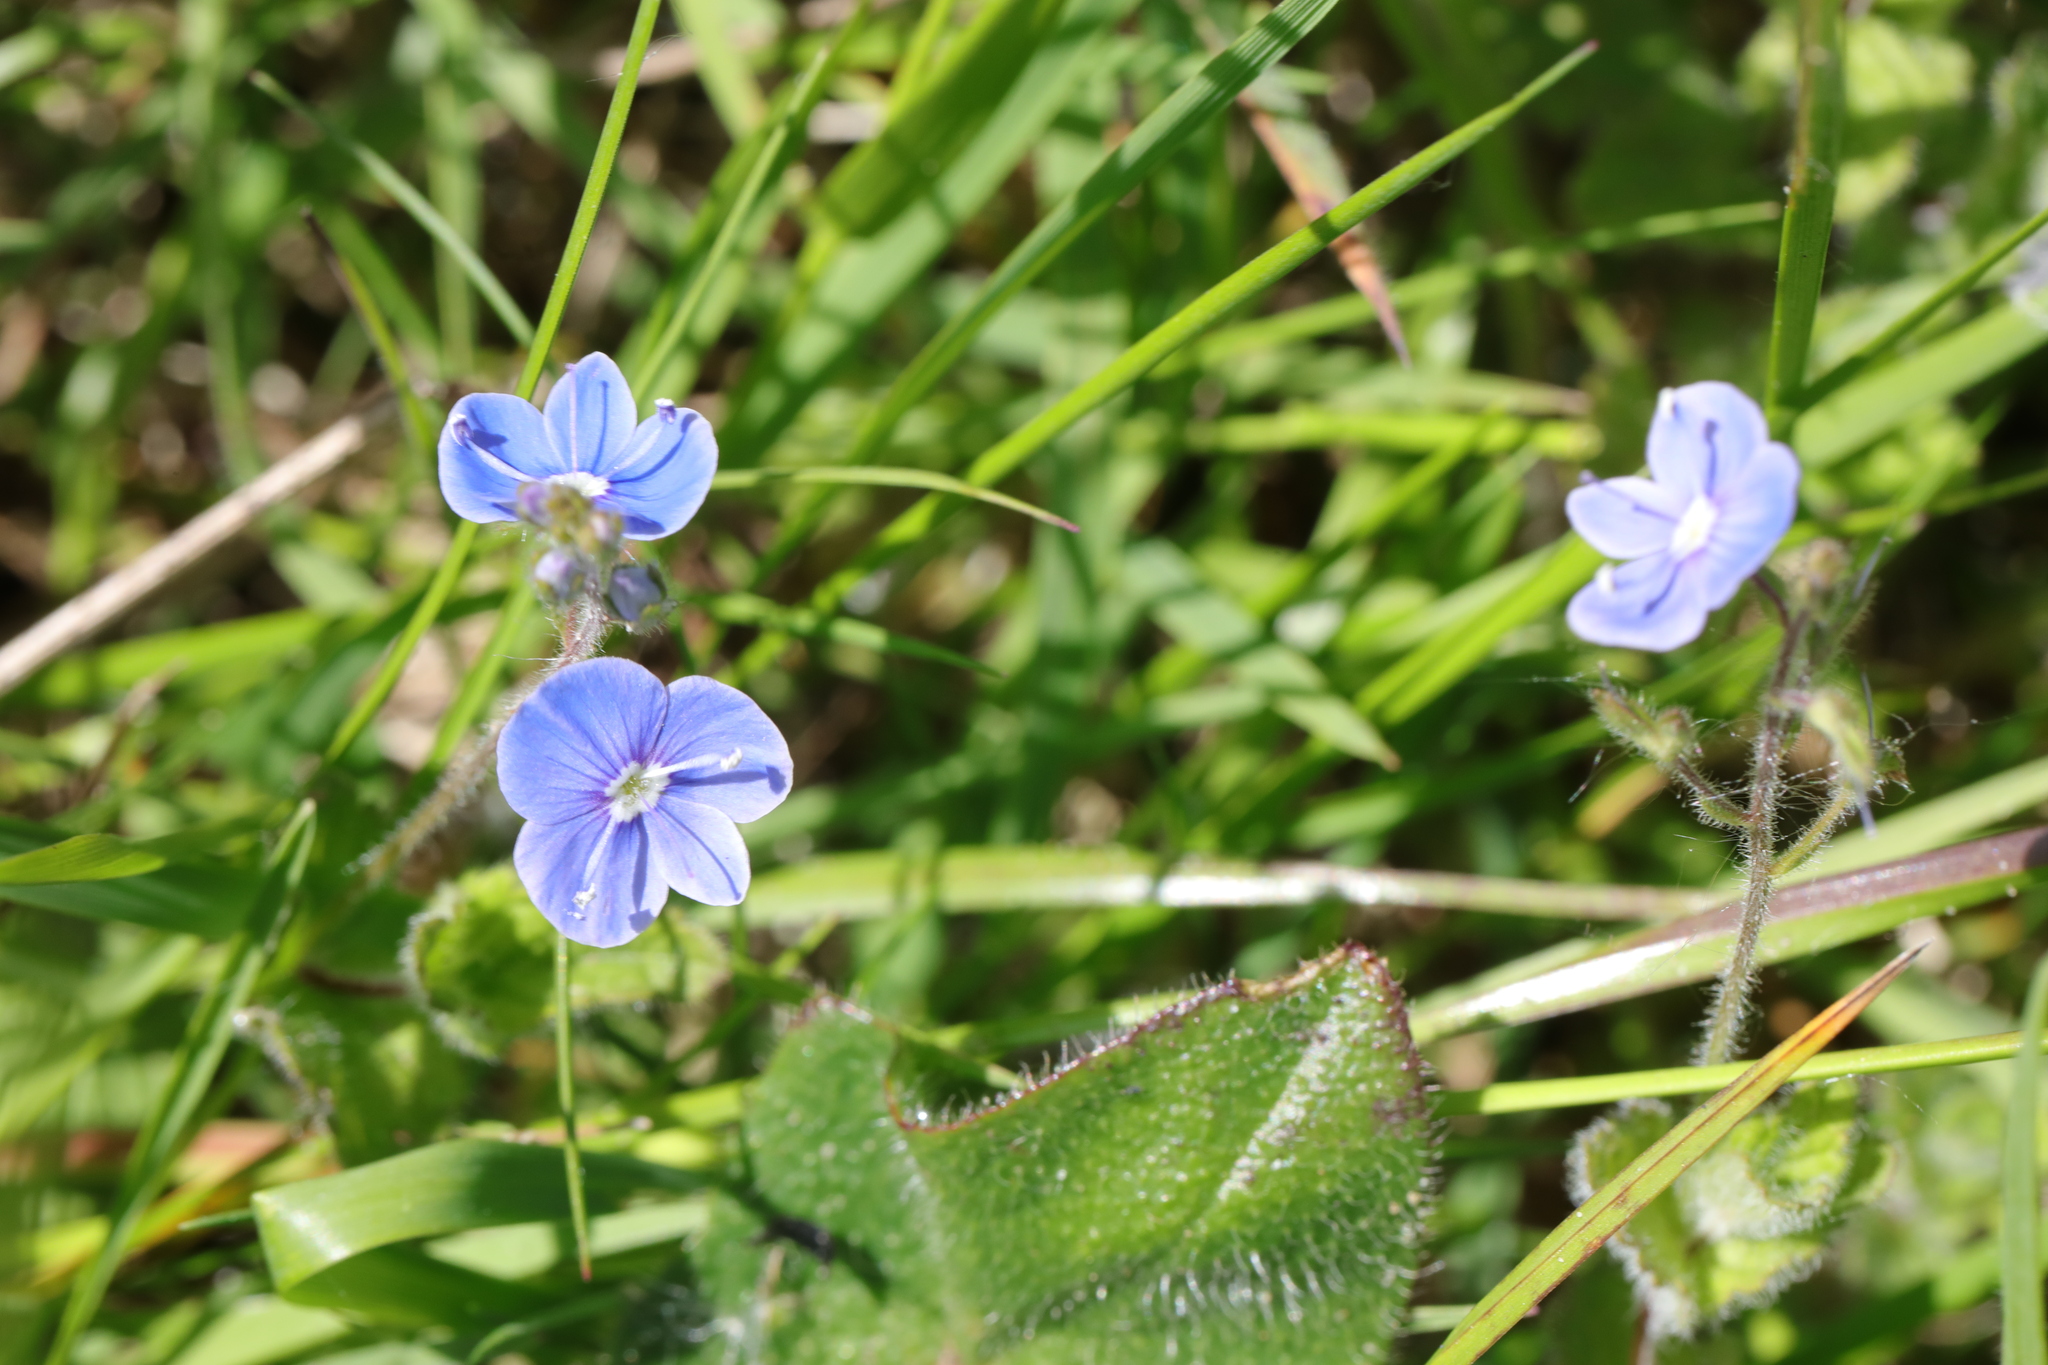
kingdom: Plantae
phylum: Tracheophyta
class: Magnoliopsida
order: Lamiales
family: Plantaginaceae
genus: Veronica
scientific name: Veronica chamaedrys
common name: Germander speedwell
